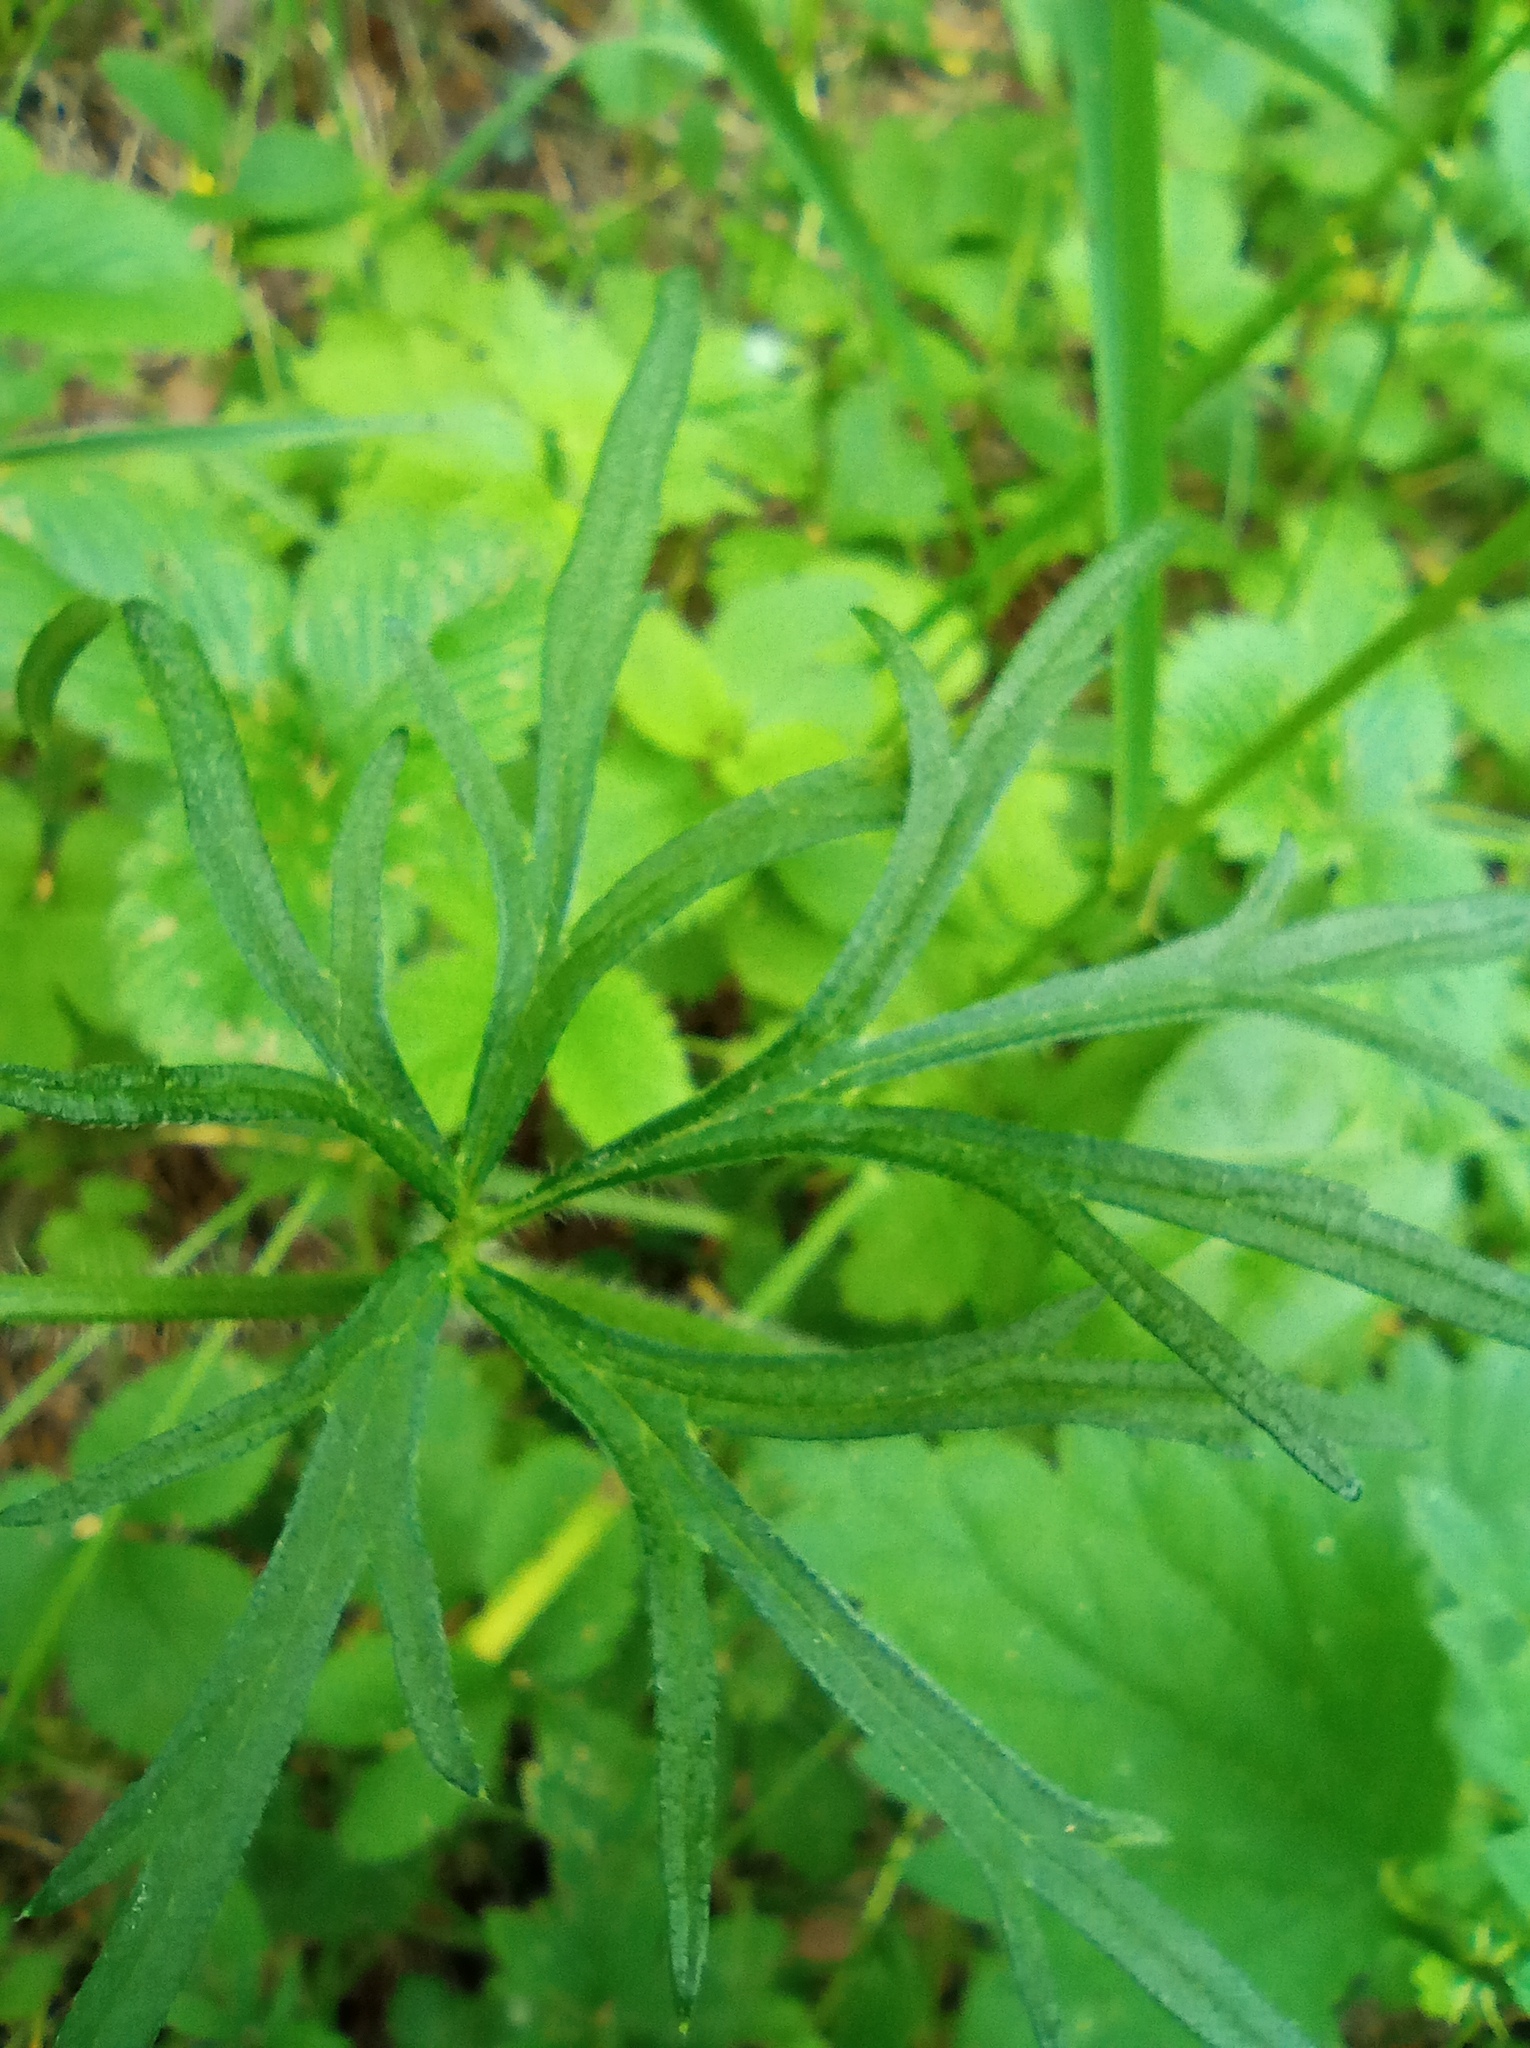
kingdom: Plantae
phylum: Tracheophyta
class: Magnoliopsida
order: Ranunculales
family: Ranunculaceae
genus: Ranunculus
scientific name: Ranunculus polyanthemos
